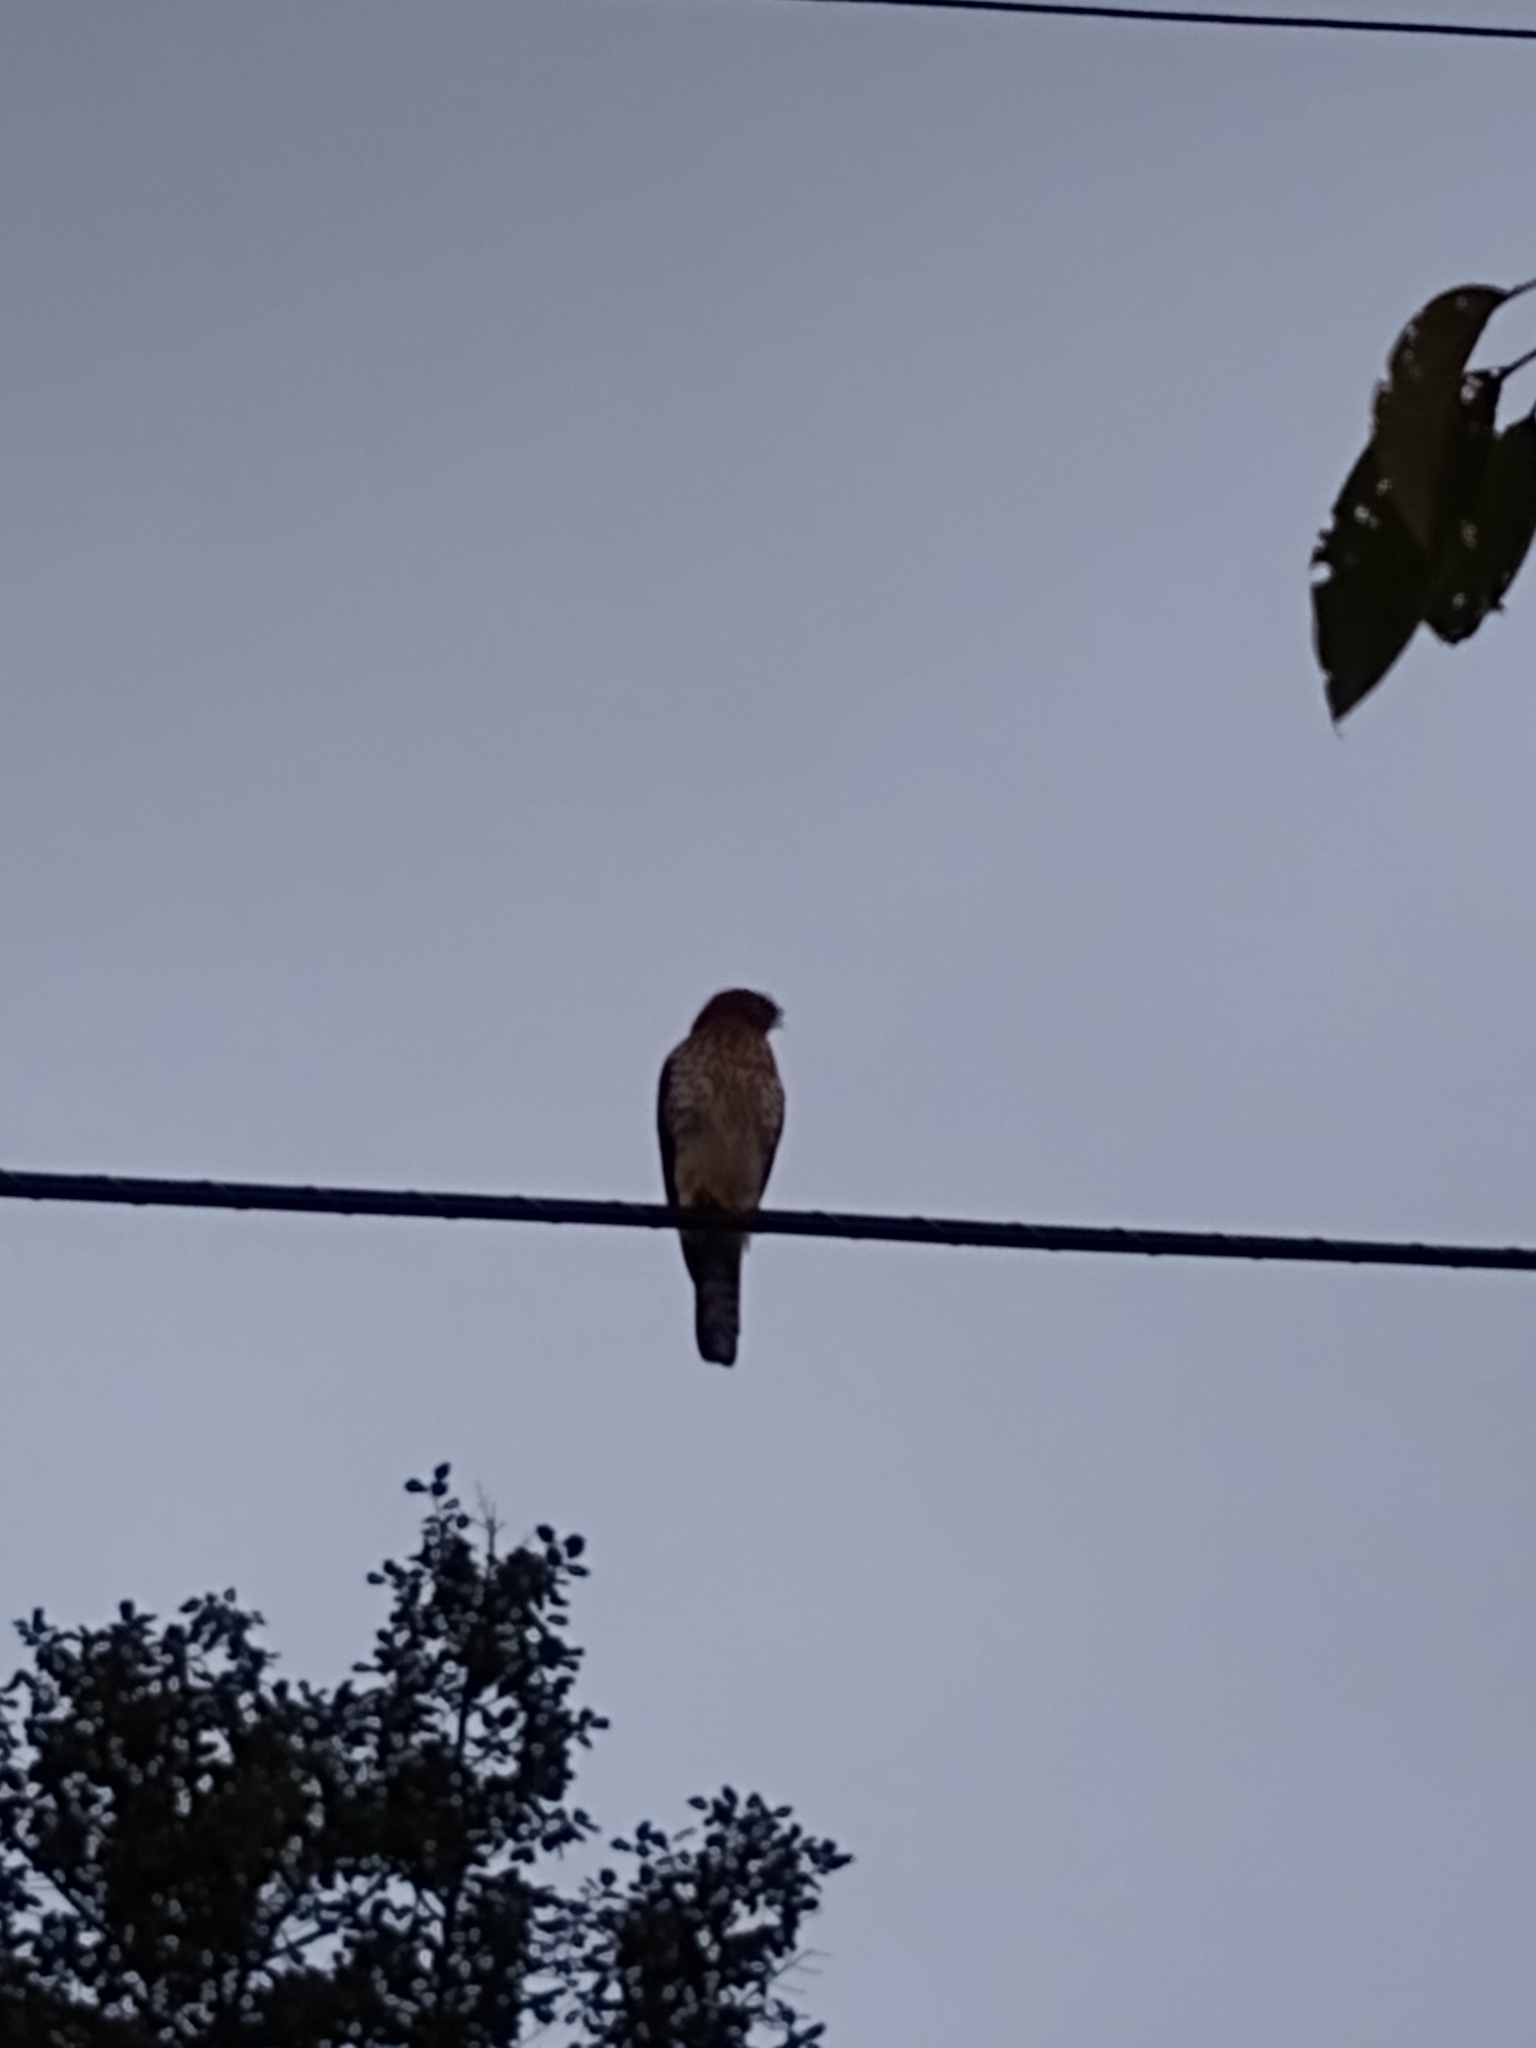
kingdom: Animalia
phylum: Chordata
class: Aves
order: Accipitriformes
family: Accipitridae
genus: Accipiter
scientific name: Accipiter cooperii
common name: Cooper's hawk
